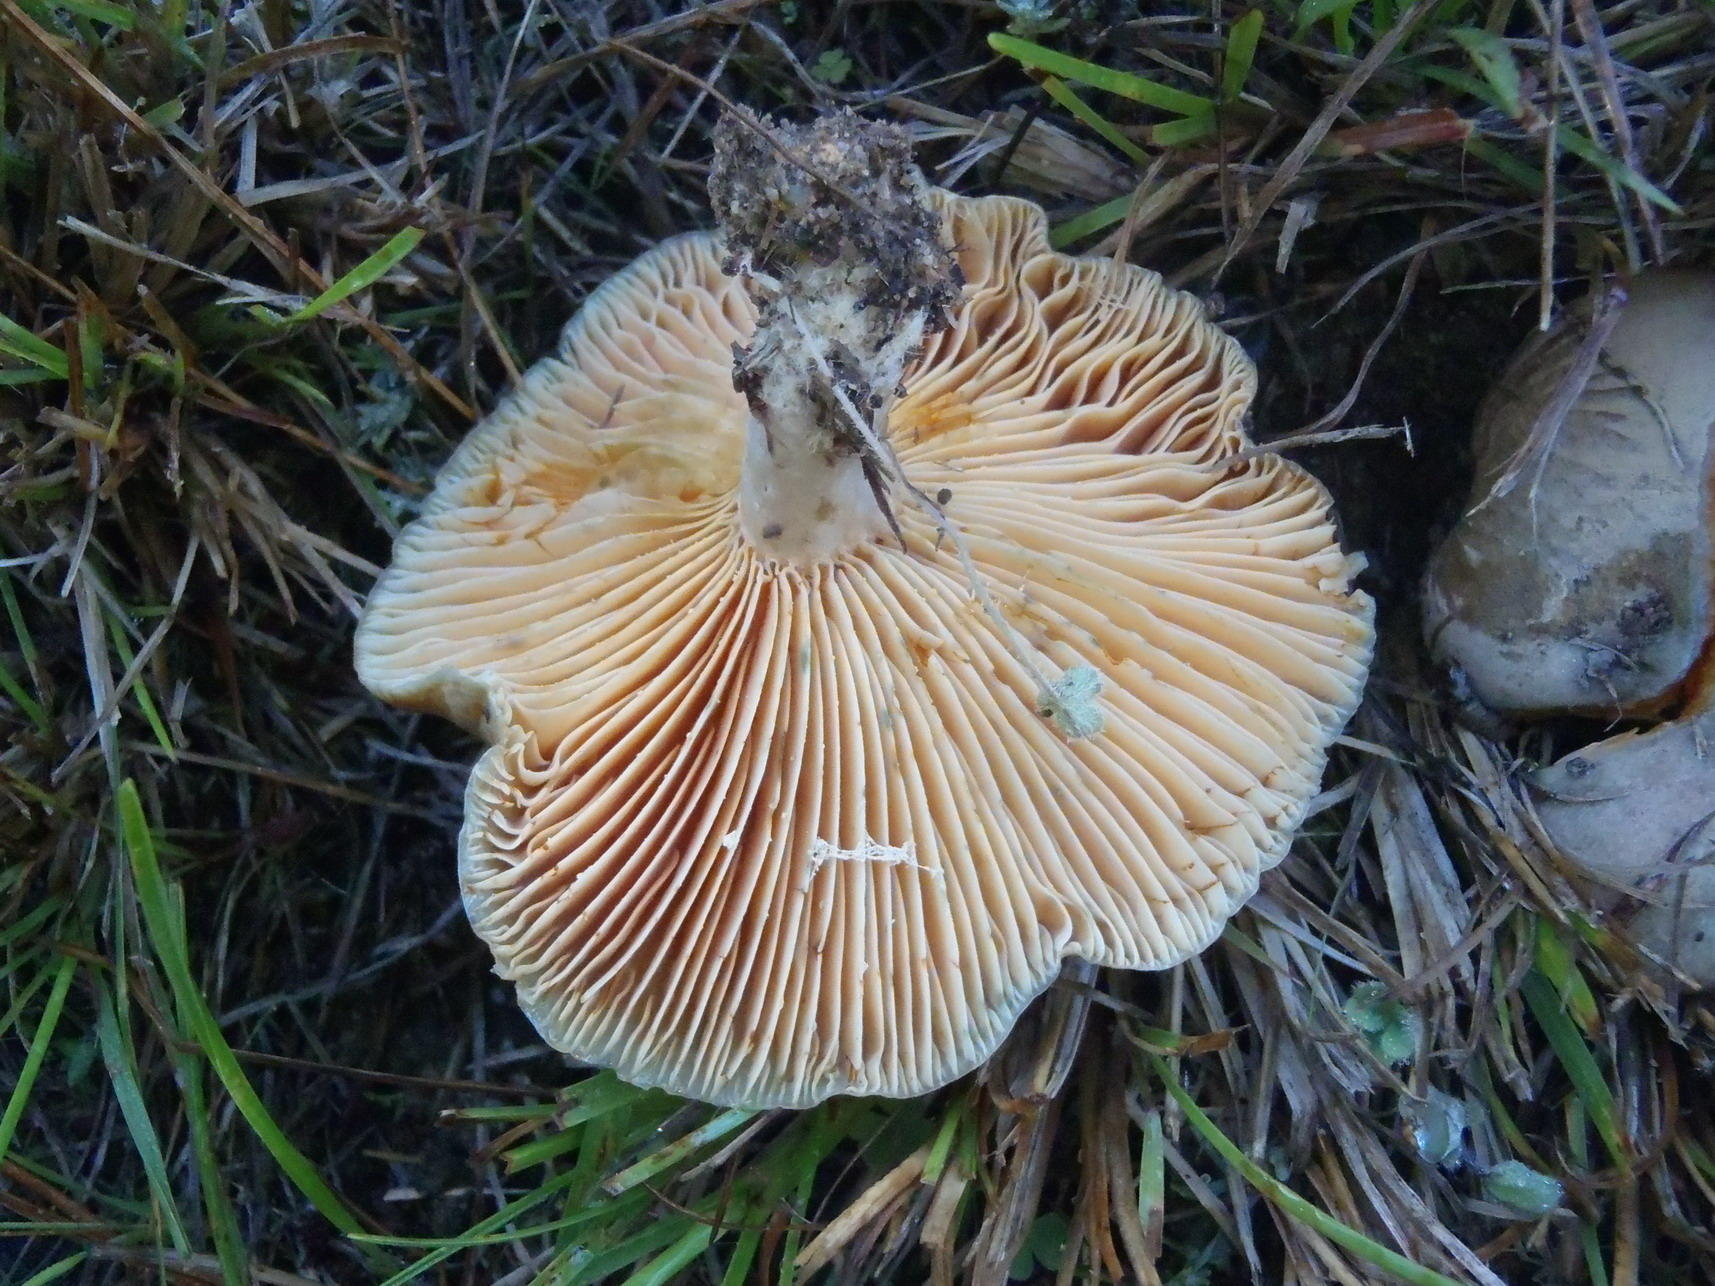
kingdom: Fungi
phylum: Basidiomycota
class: Agaricomycetes
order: Russulales
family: Russulaceae
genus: Lactarius
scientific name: Lactarius deliciosus
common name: Saffron milk-cap
